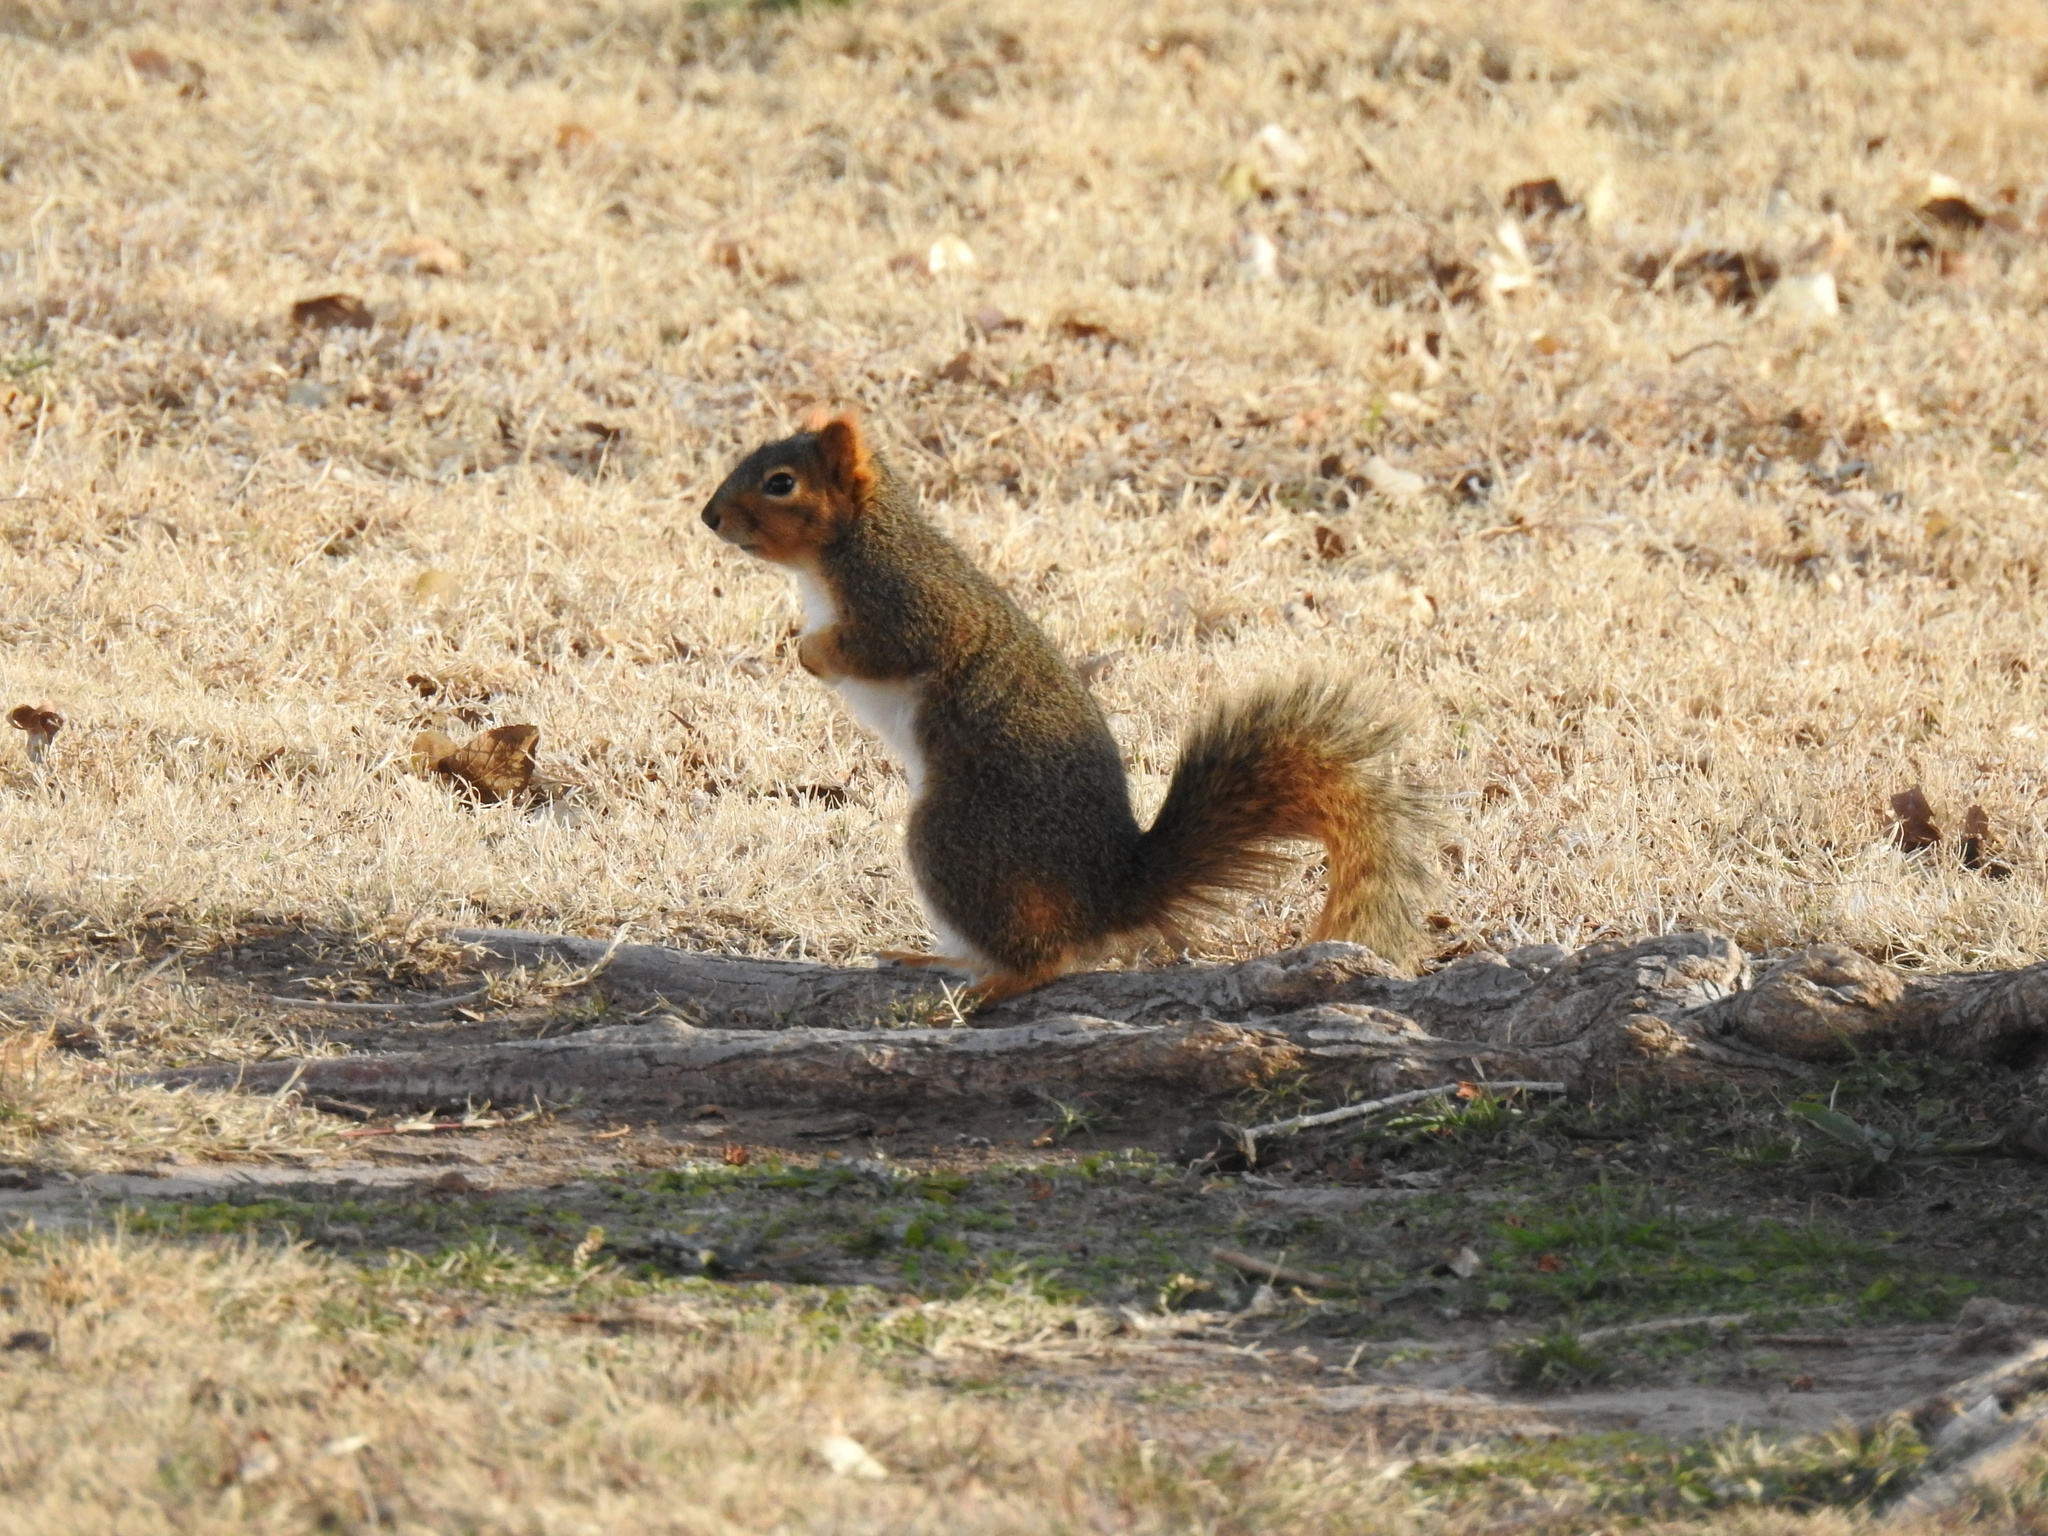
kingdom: Animalia
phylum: Chordata
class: Mammalia
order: Rodentia
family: Sciuridae
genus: Sciurus
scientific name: Sciurus niger
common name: Fox squirrel
